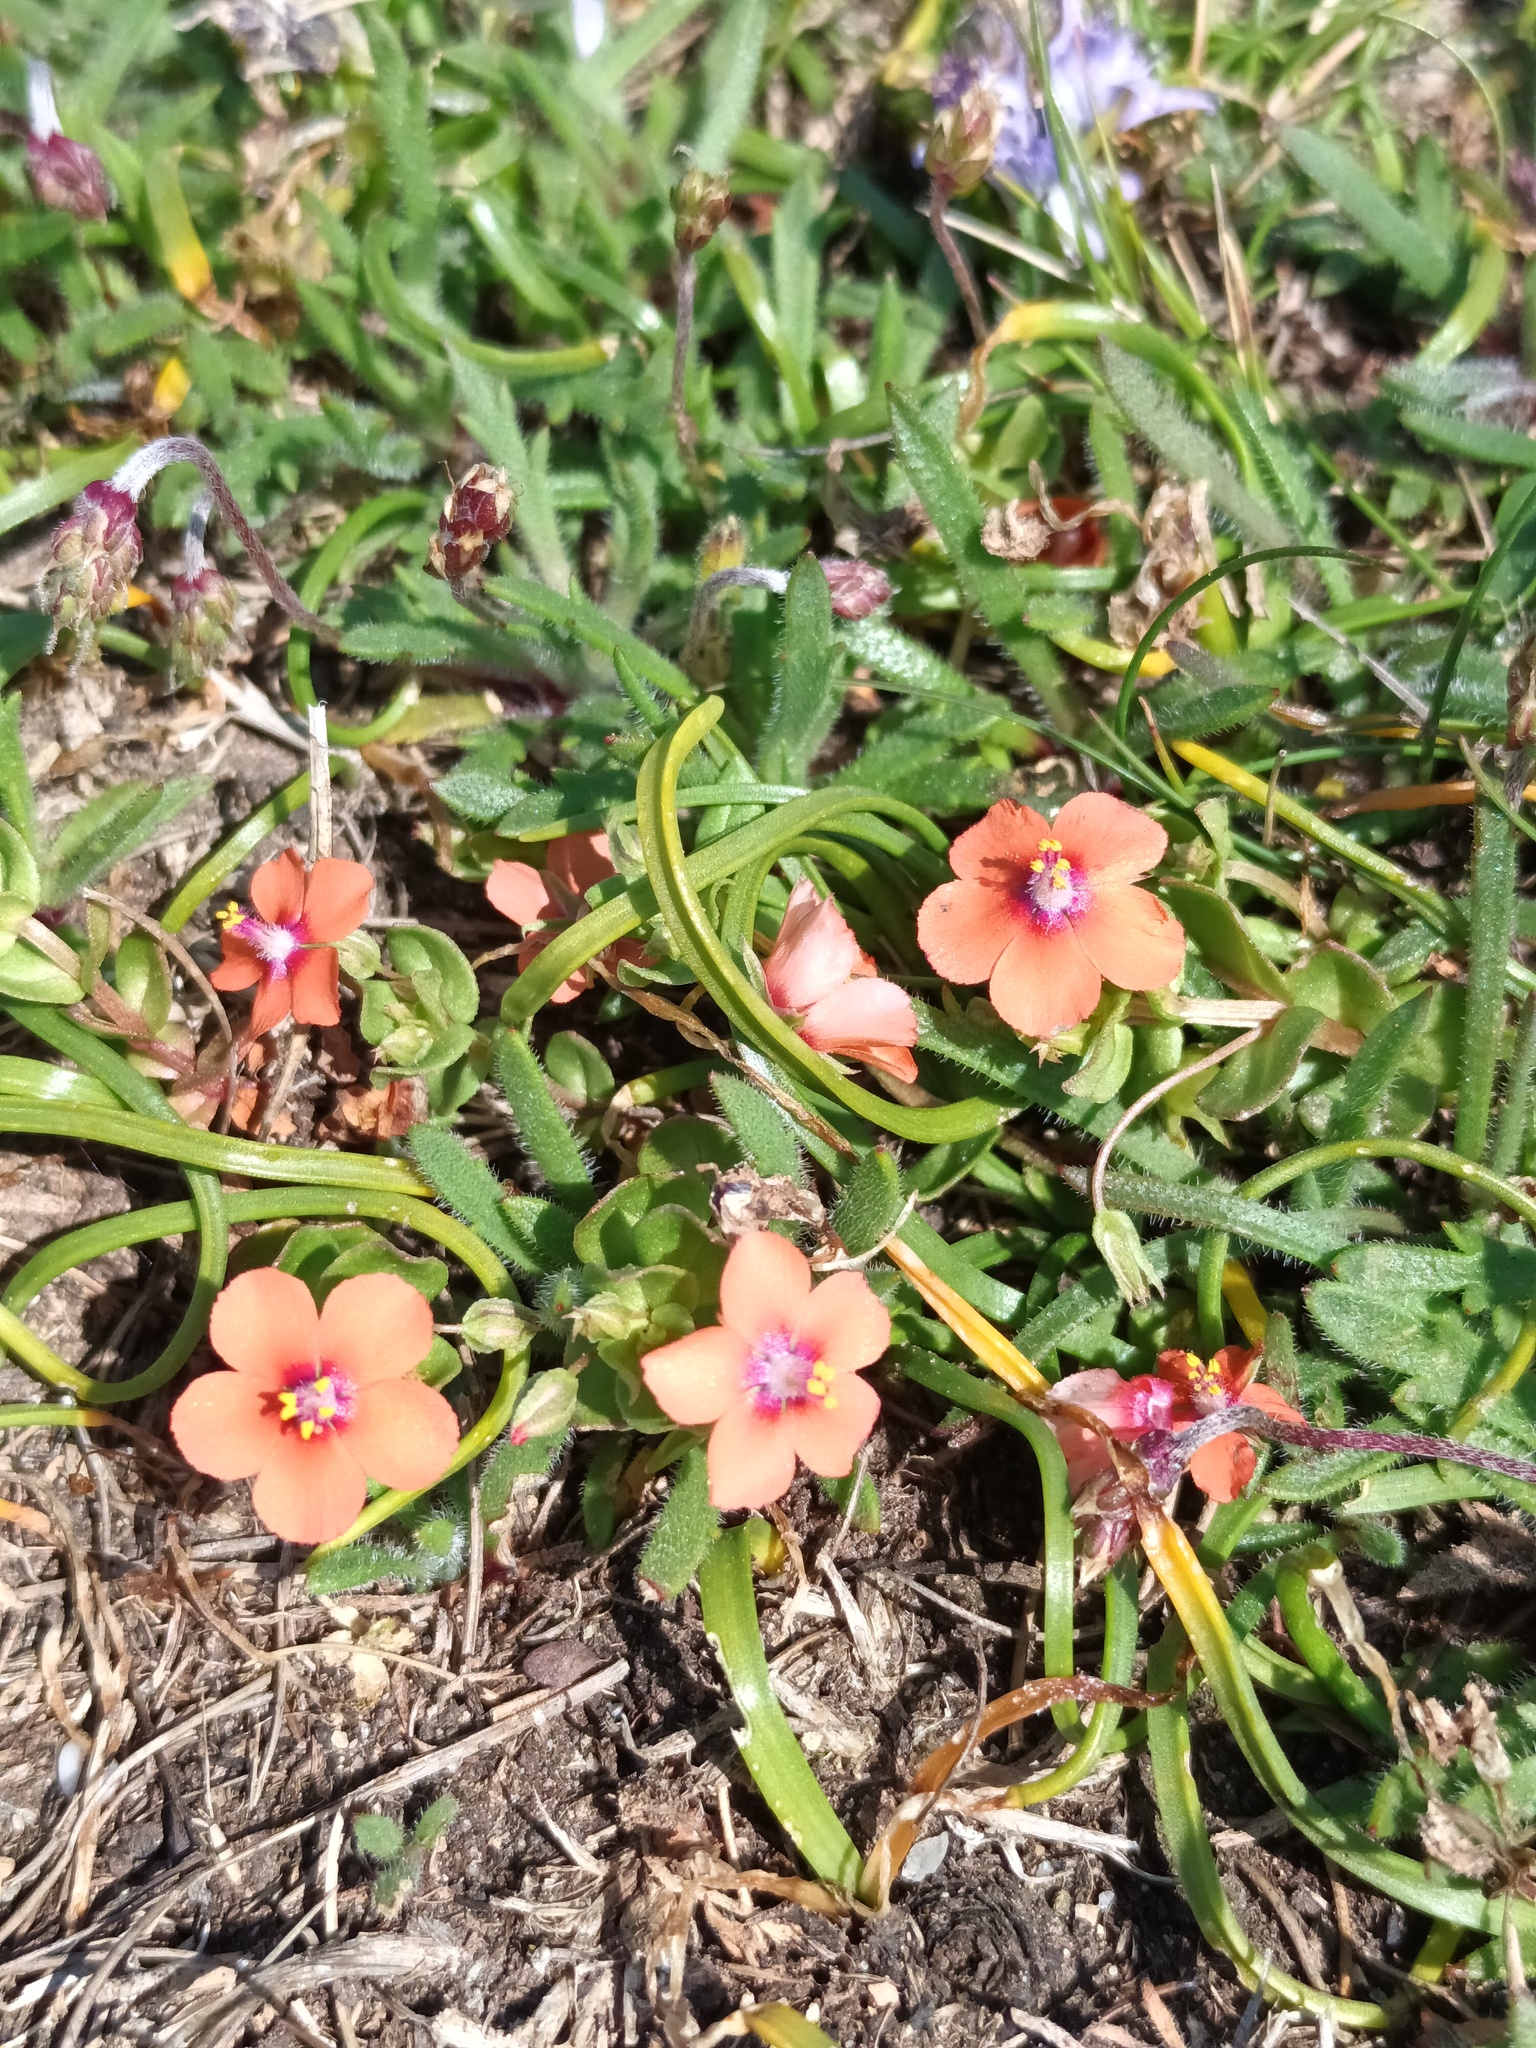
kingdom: Plantae
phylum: Tracheophyta
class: Magnoliopsida
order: Ericales
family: Primulaceae
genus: Lysimachia
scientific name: Lysimachia arvensis
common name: Scarlet pimpernel
